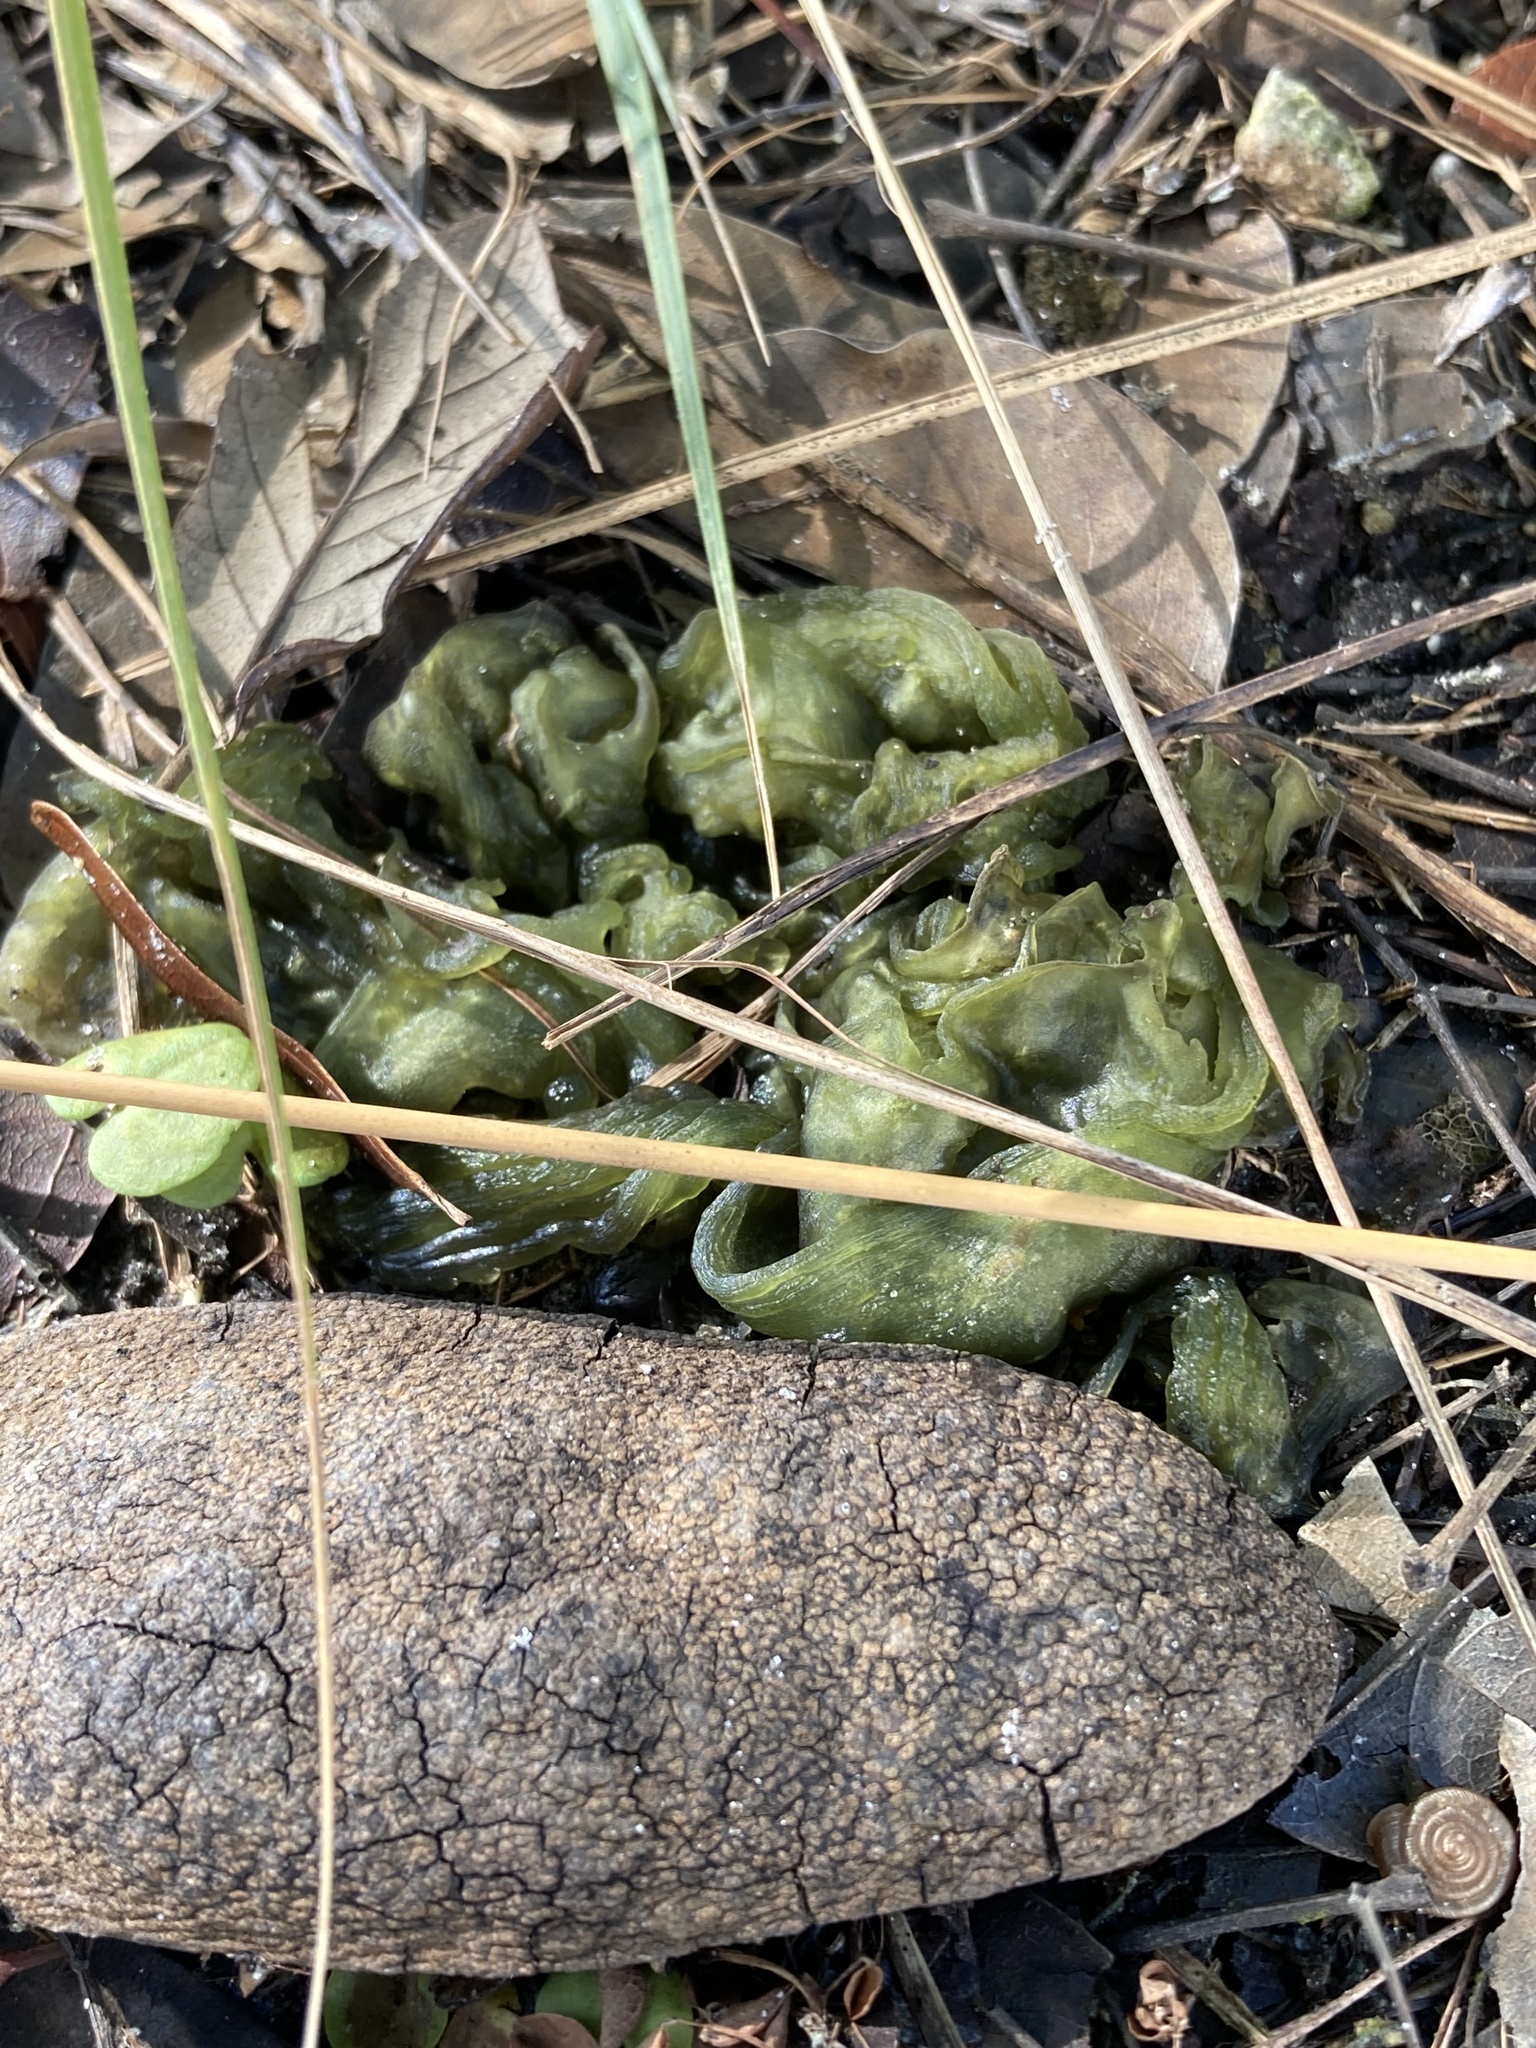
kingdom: Bacteria
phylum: Cyanobacteria
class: Cyanobacteriia
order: Cyanobacteriales
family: Nostocaceae
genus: Nostoc
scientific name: Nostoc commune
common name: Star jelly
